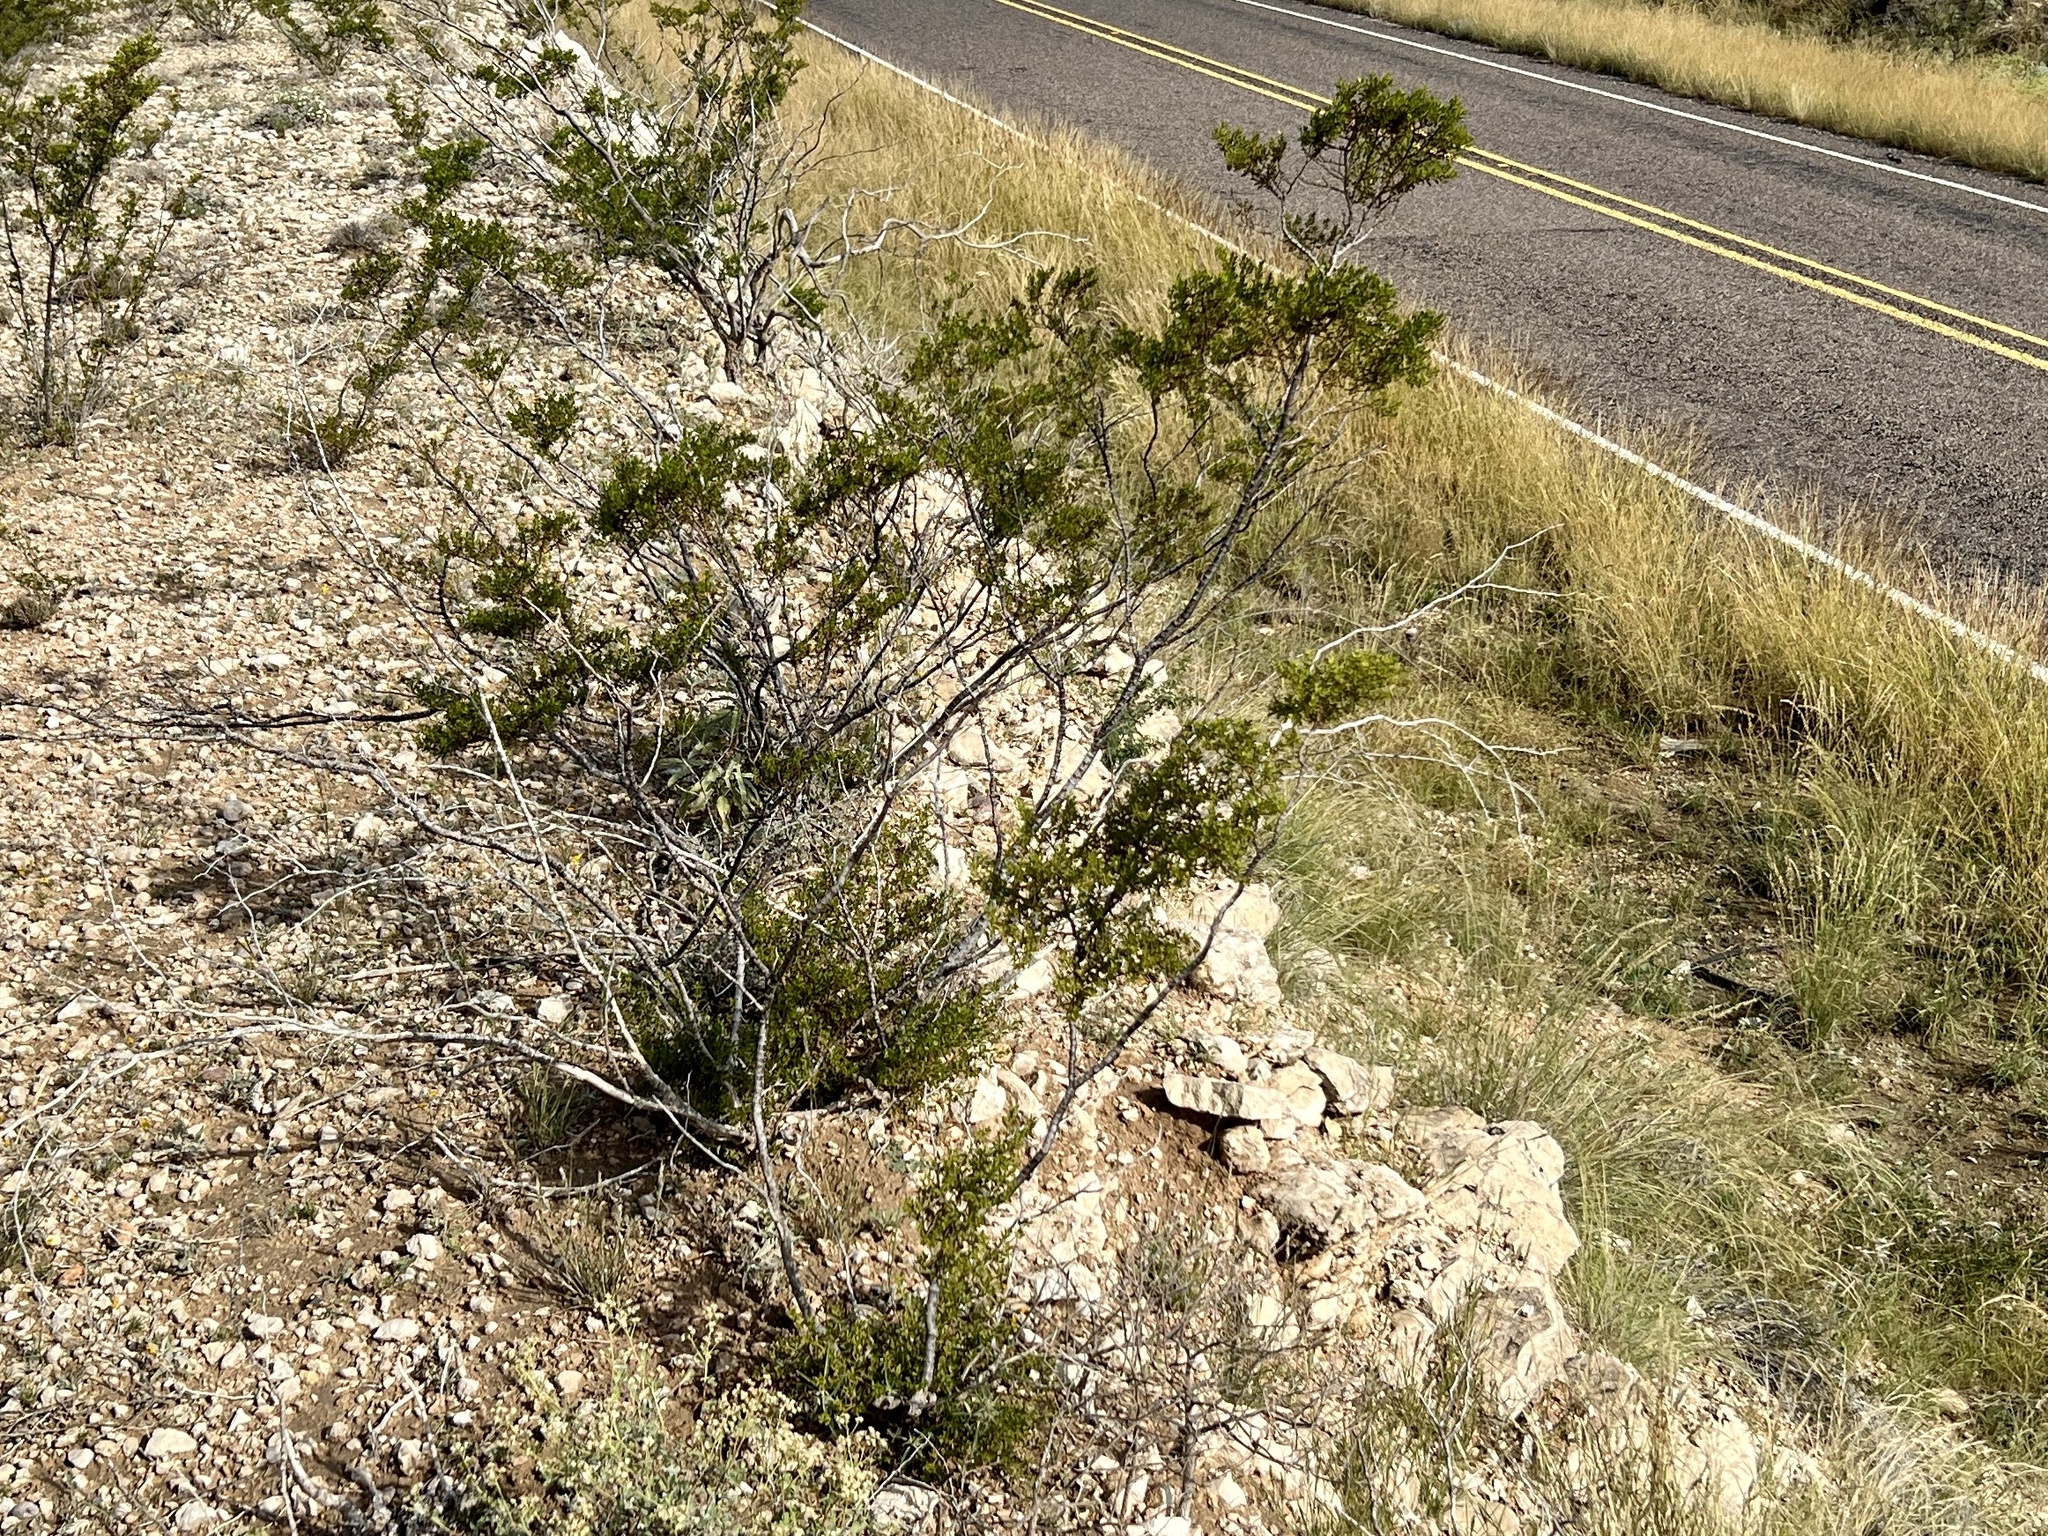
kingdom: Plantae
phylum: Tracheophyta
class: Magnoliopsida
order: Zygophyllales
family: Zygophyllaceae
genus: Larrea
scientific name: Larrea tridentata
